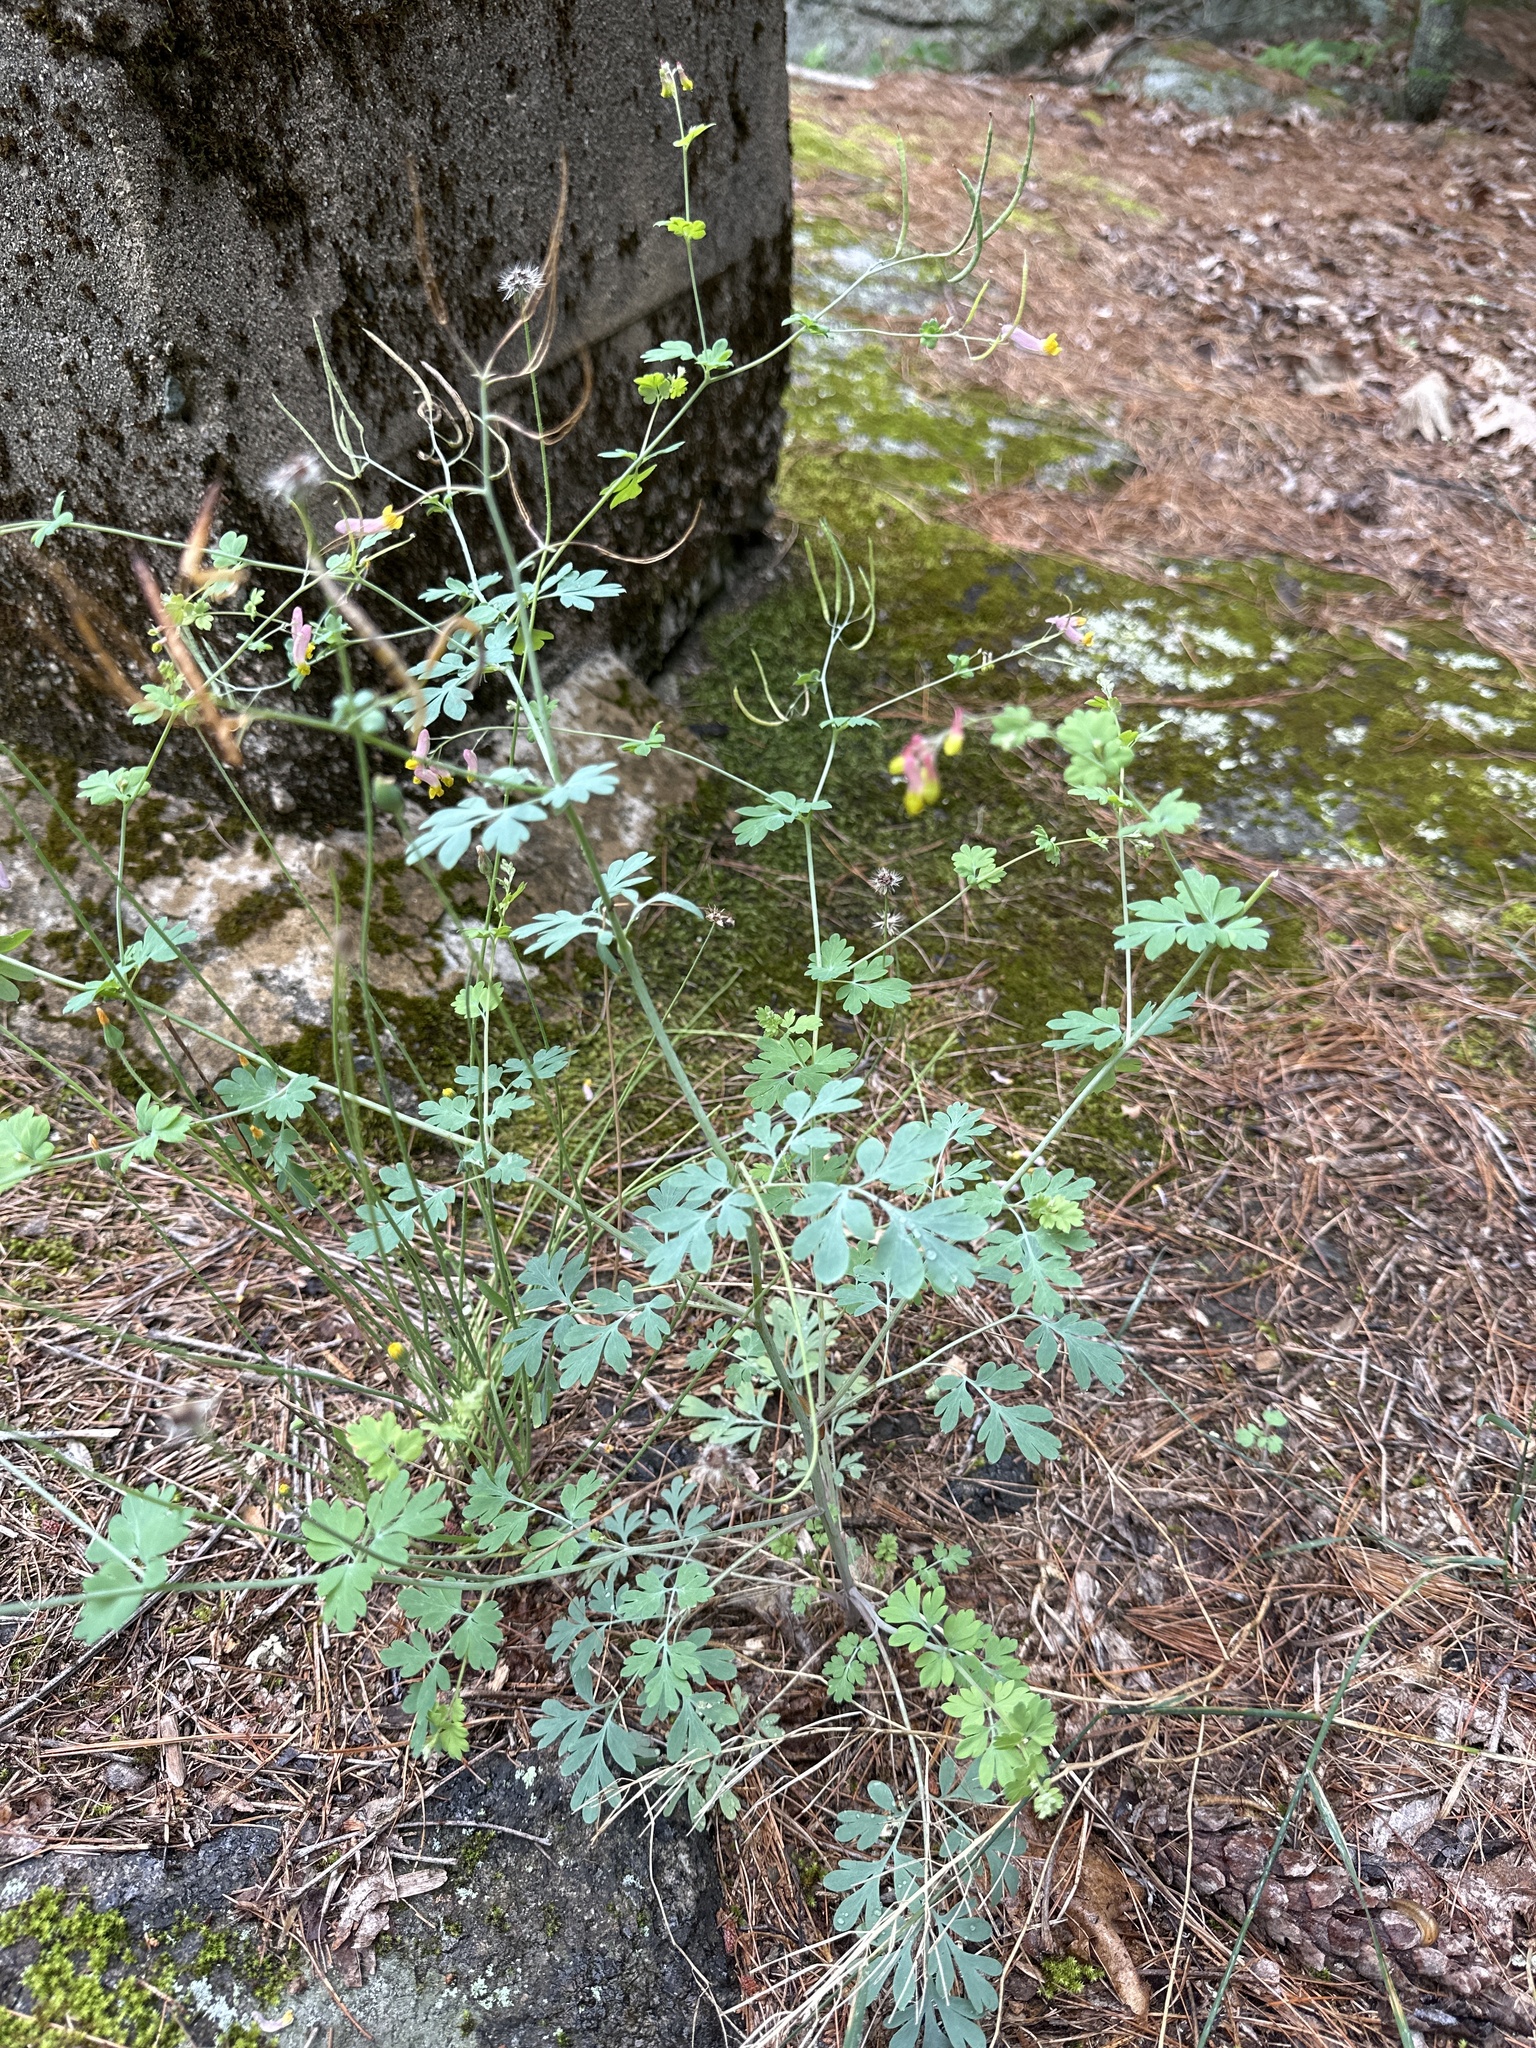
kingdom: Plantae
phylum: Tracheophyta
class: Magnoliopsida
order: Ranunculales
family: Papaveraceae
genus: Capnoides
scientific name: Capnoides sempervirens
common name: Rock harlequin
